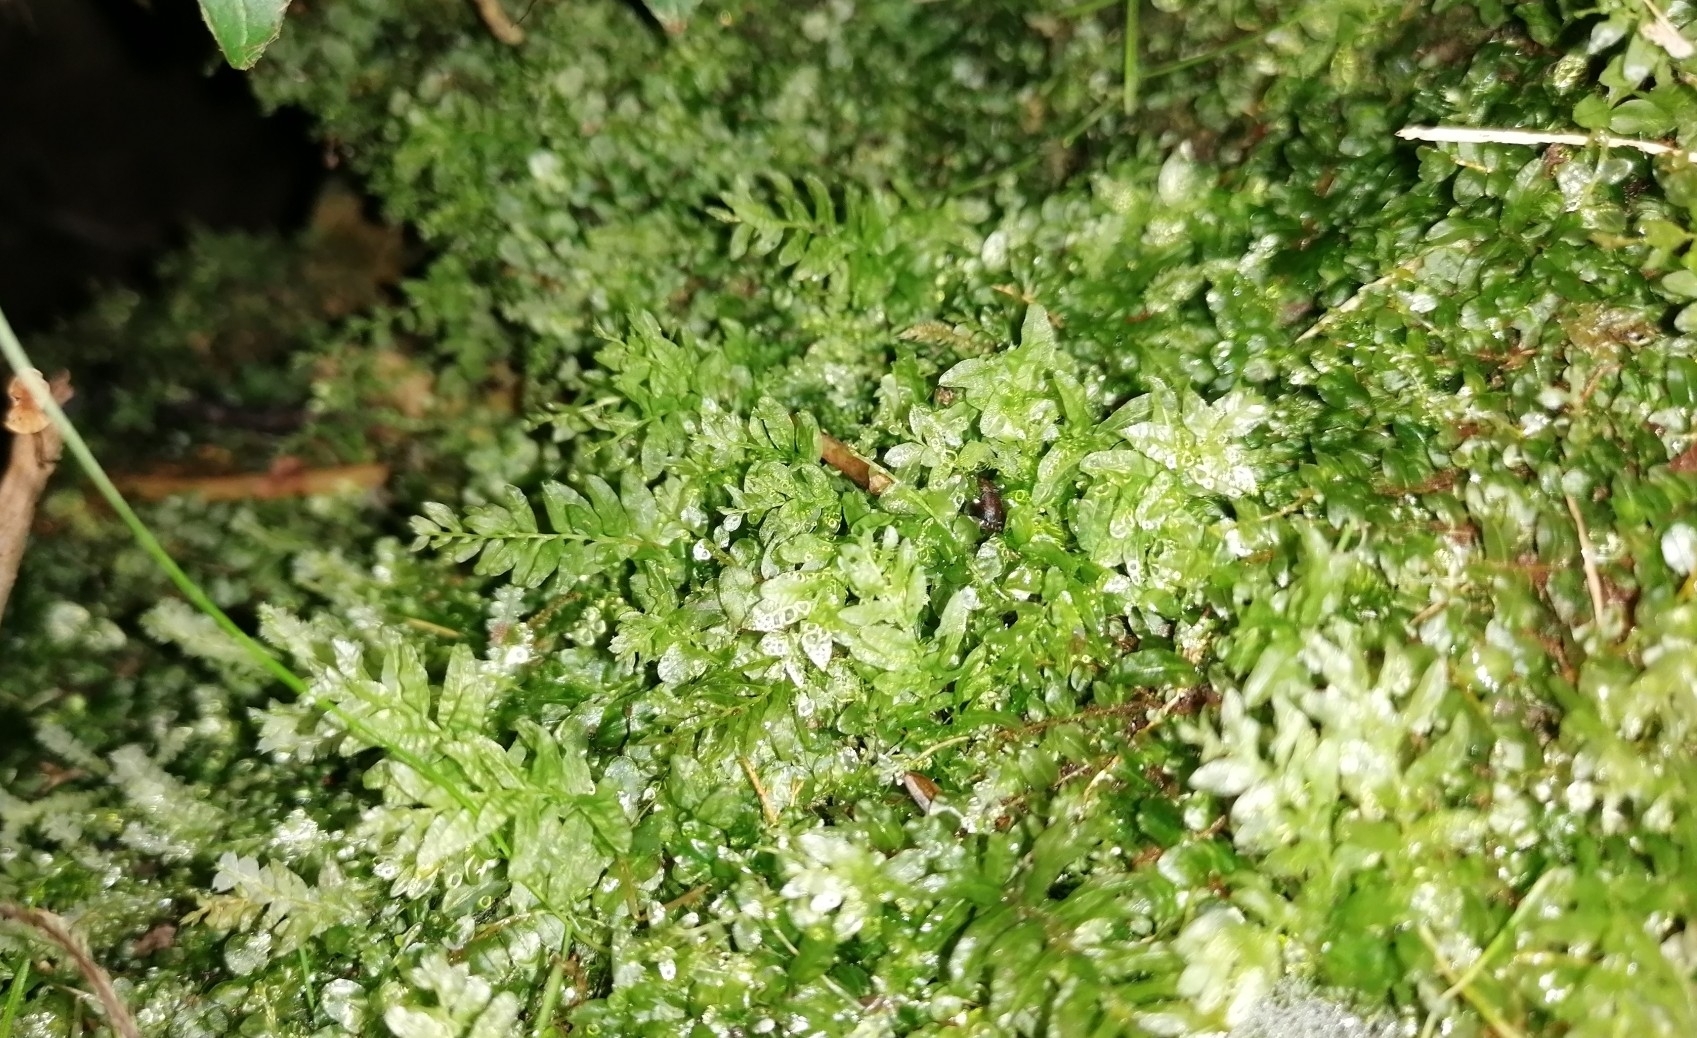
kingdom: Plantae
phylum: Bryophyta
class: Bryopsida
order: Bryales
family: Mniaceae
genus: Plagiomnium
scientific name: Plagiomnium undulatum
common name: Hart's-tongue thyme-moss
